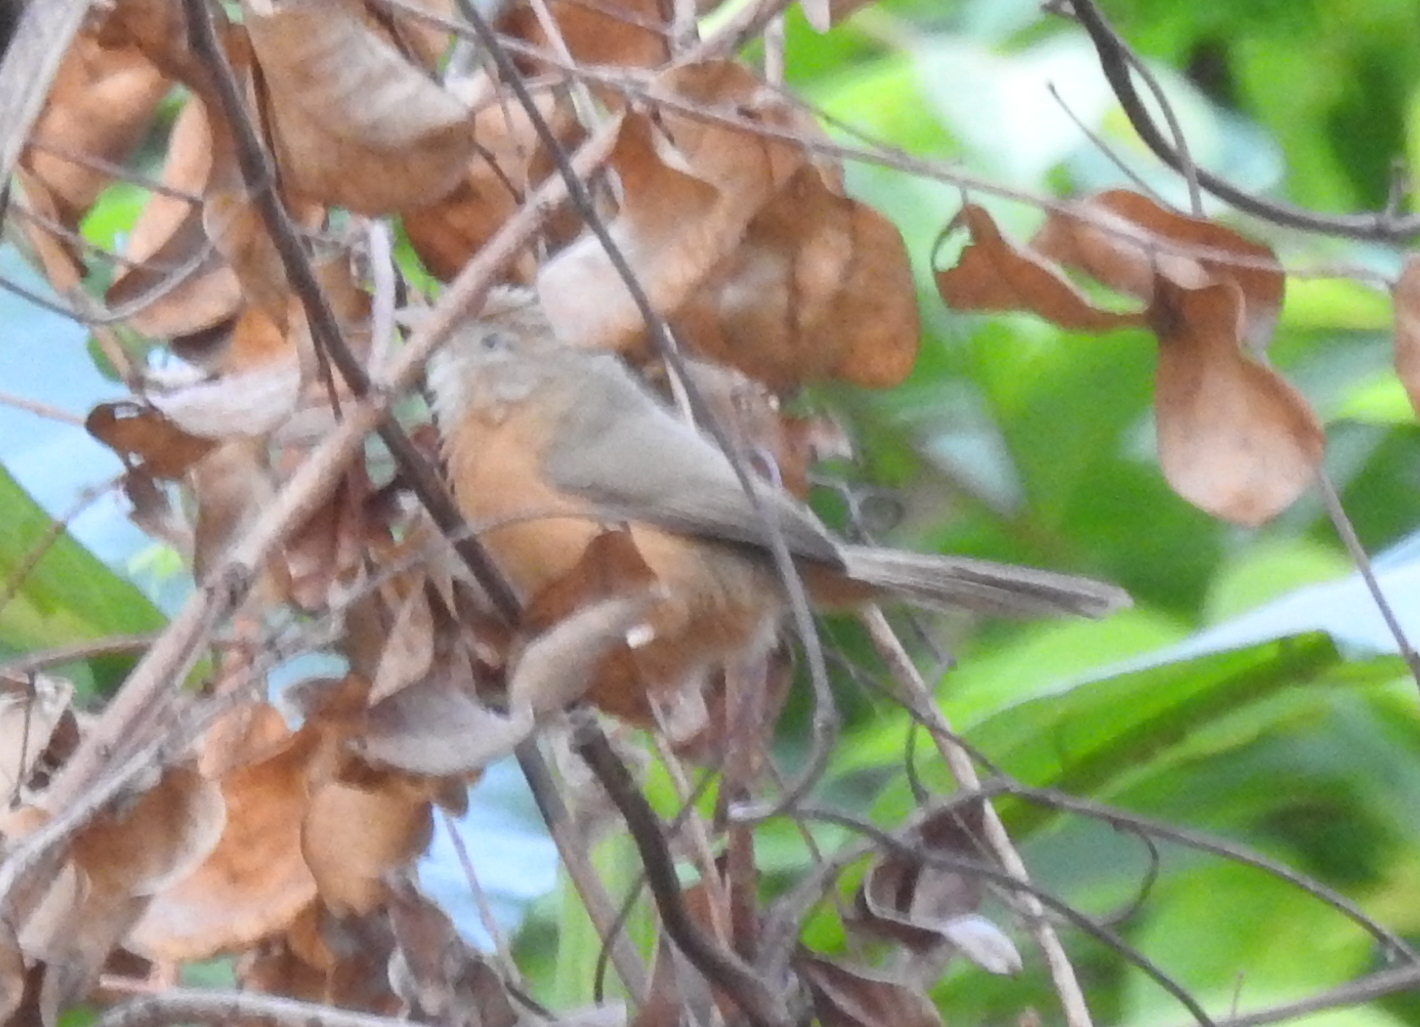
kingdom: Animalia
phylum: Chordata
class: Aves
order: Passeriformes
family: Timaliidae
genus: Dumetia
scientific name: Dumetia hyperythra
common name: Tawny-bellied babbler
